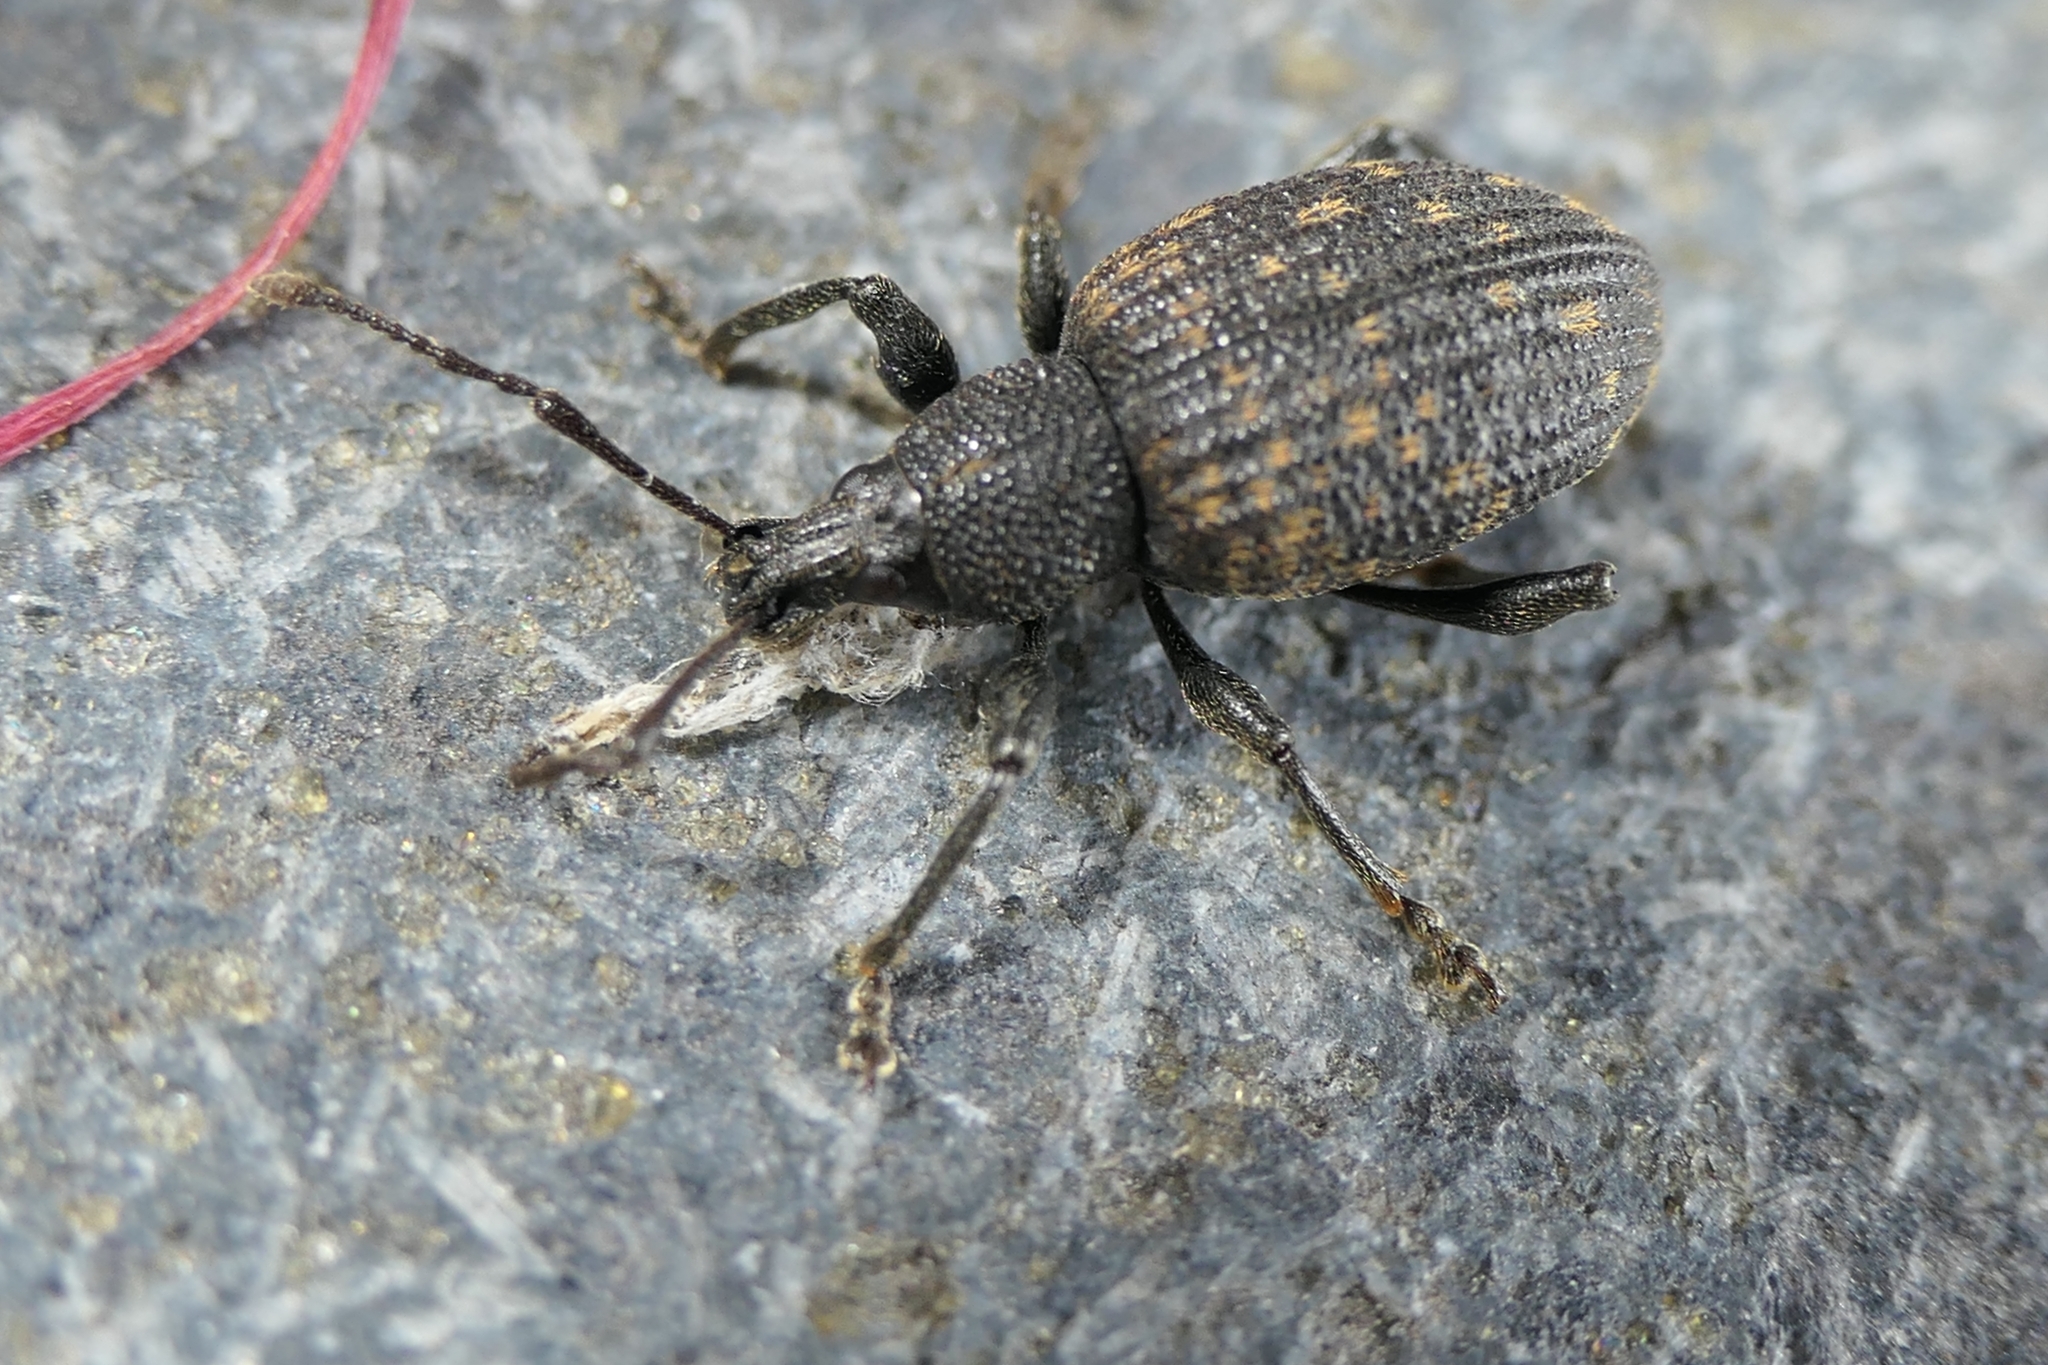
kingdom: Animalia
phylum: Arthropoda
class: Insecta
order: Coleoptera
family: Curculionidae
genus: Otiorhynchus
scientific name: Otiorhynchus sulcatus
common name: Black vine weevil
